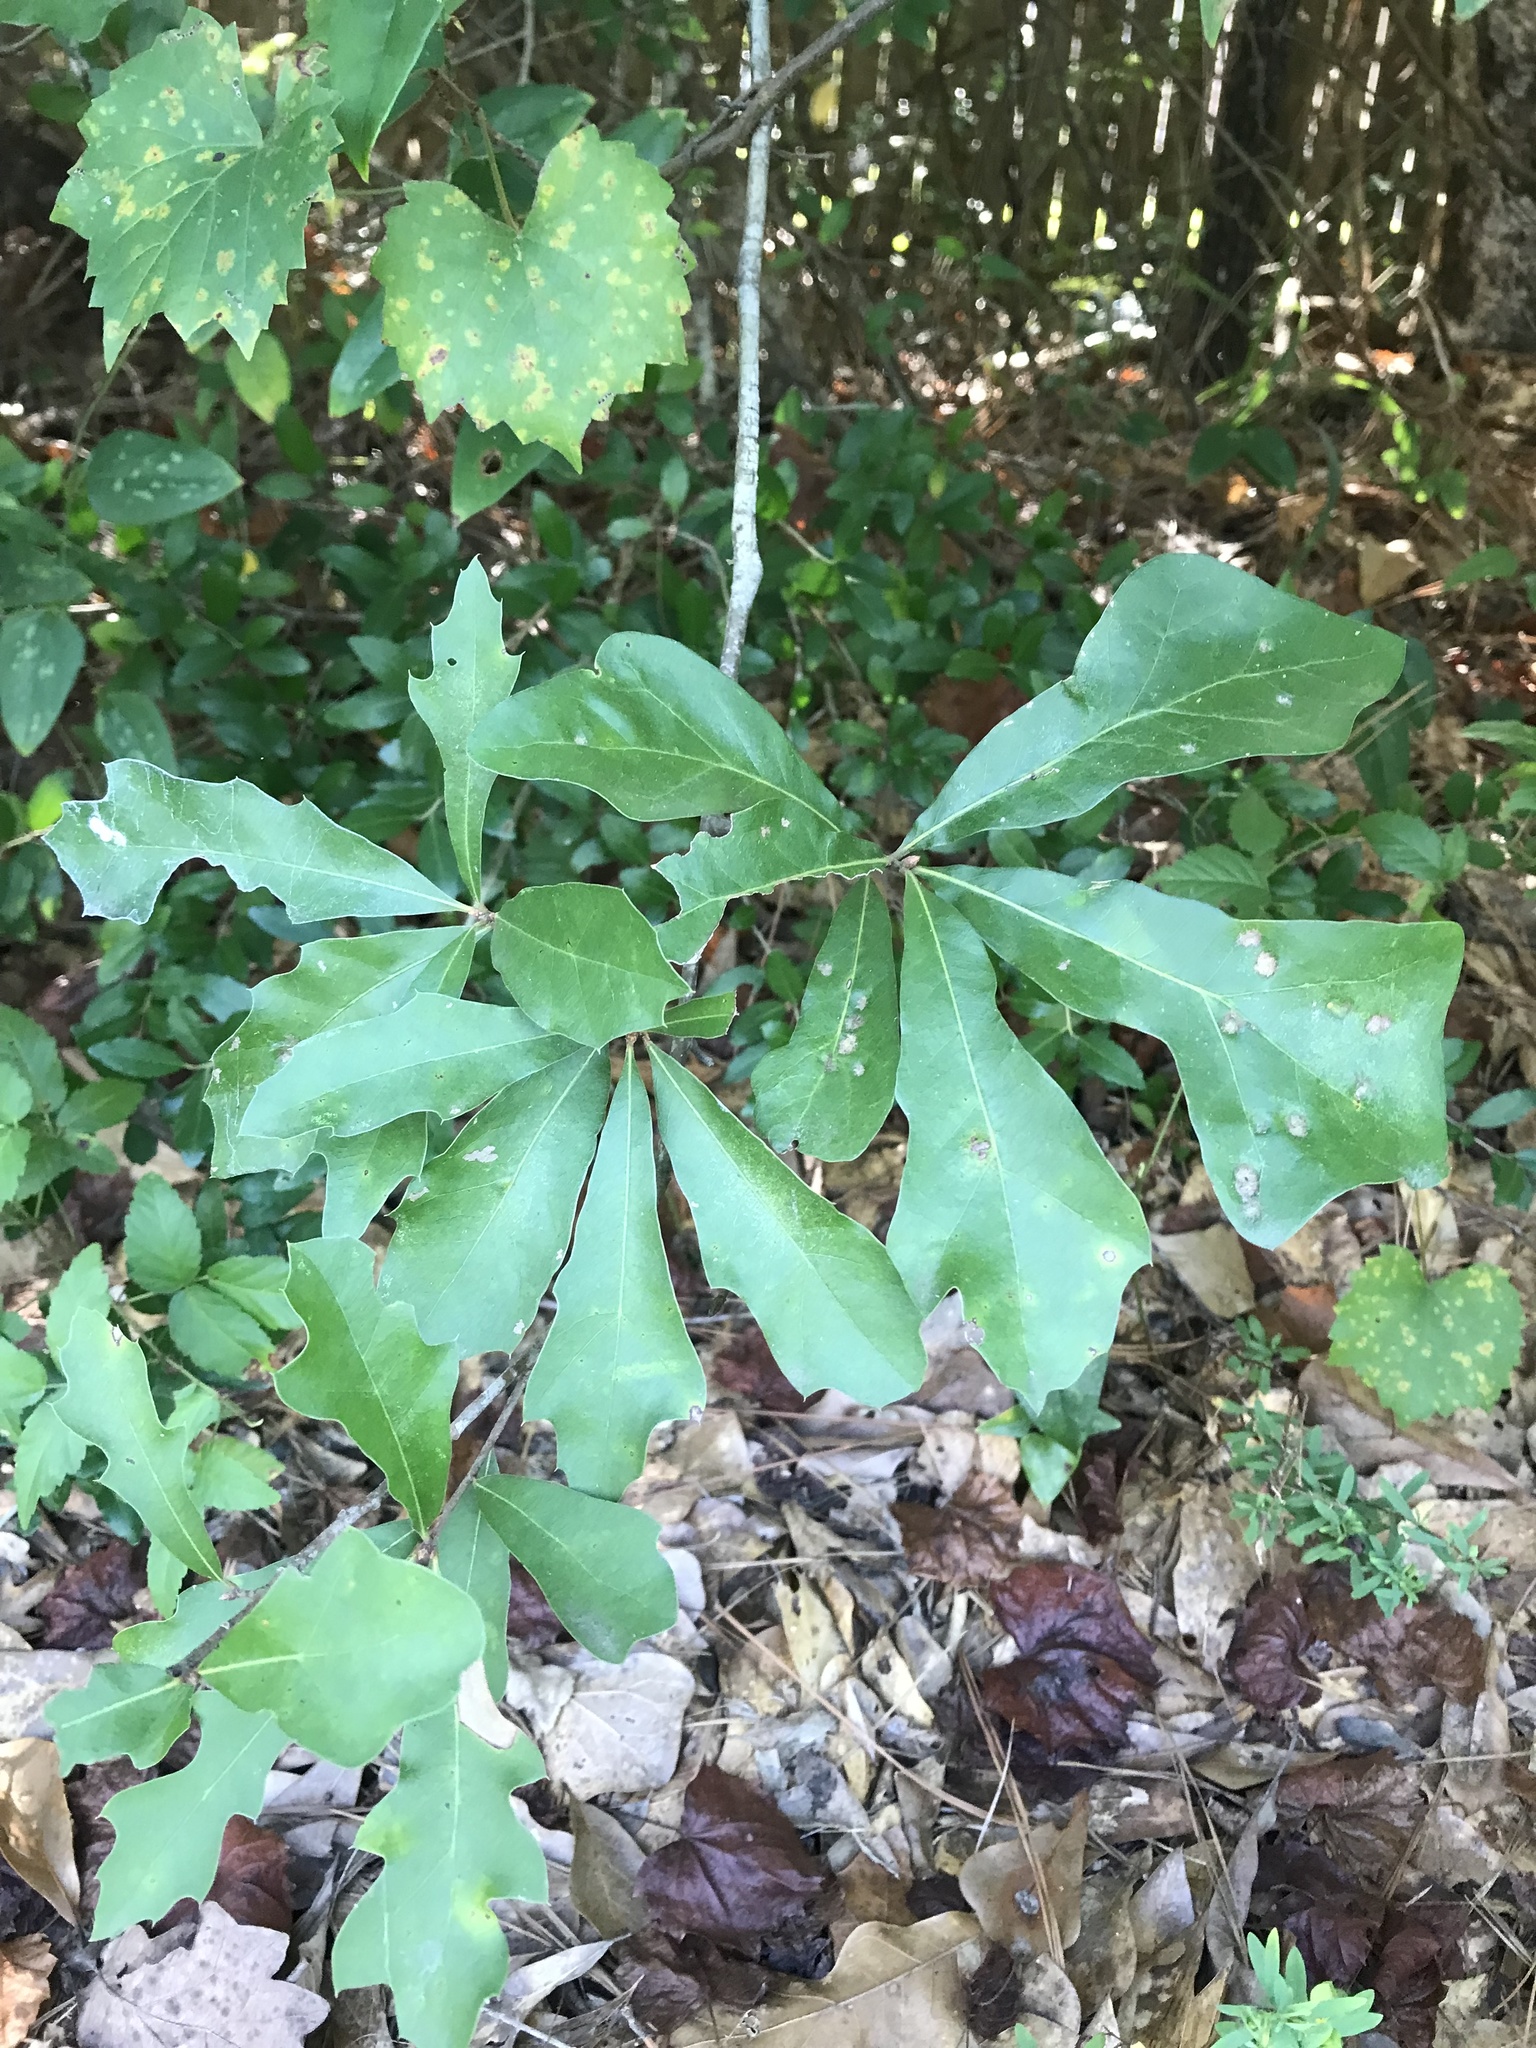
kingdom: Plantae
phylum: Tracheophyta
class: Magnoliopsida
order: Fagales
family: Fagaceae
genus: Quercus
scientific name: Quercus nigra
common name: Water oak
